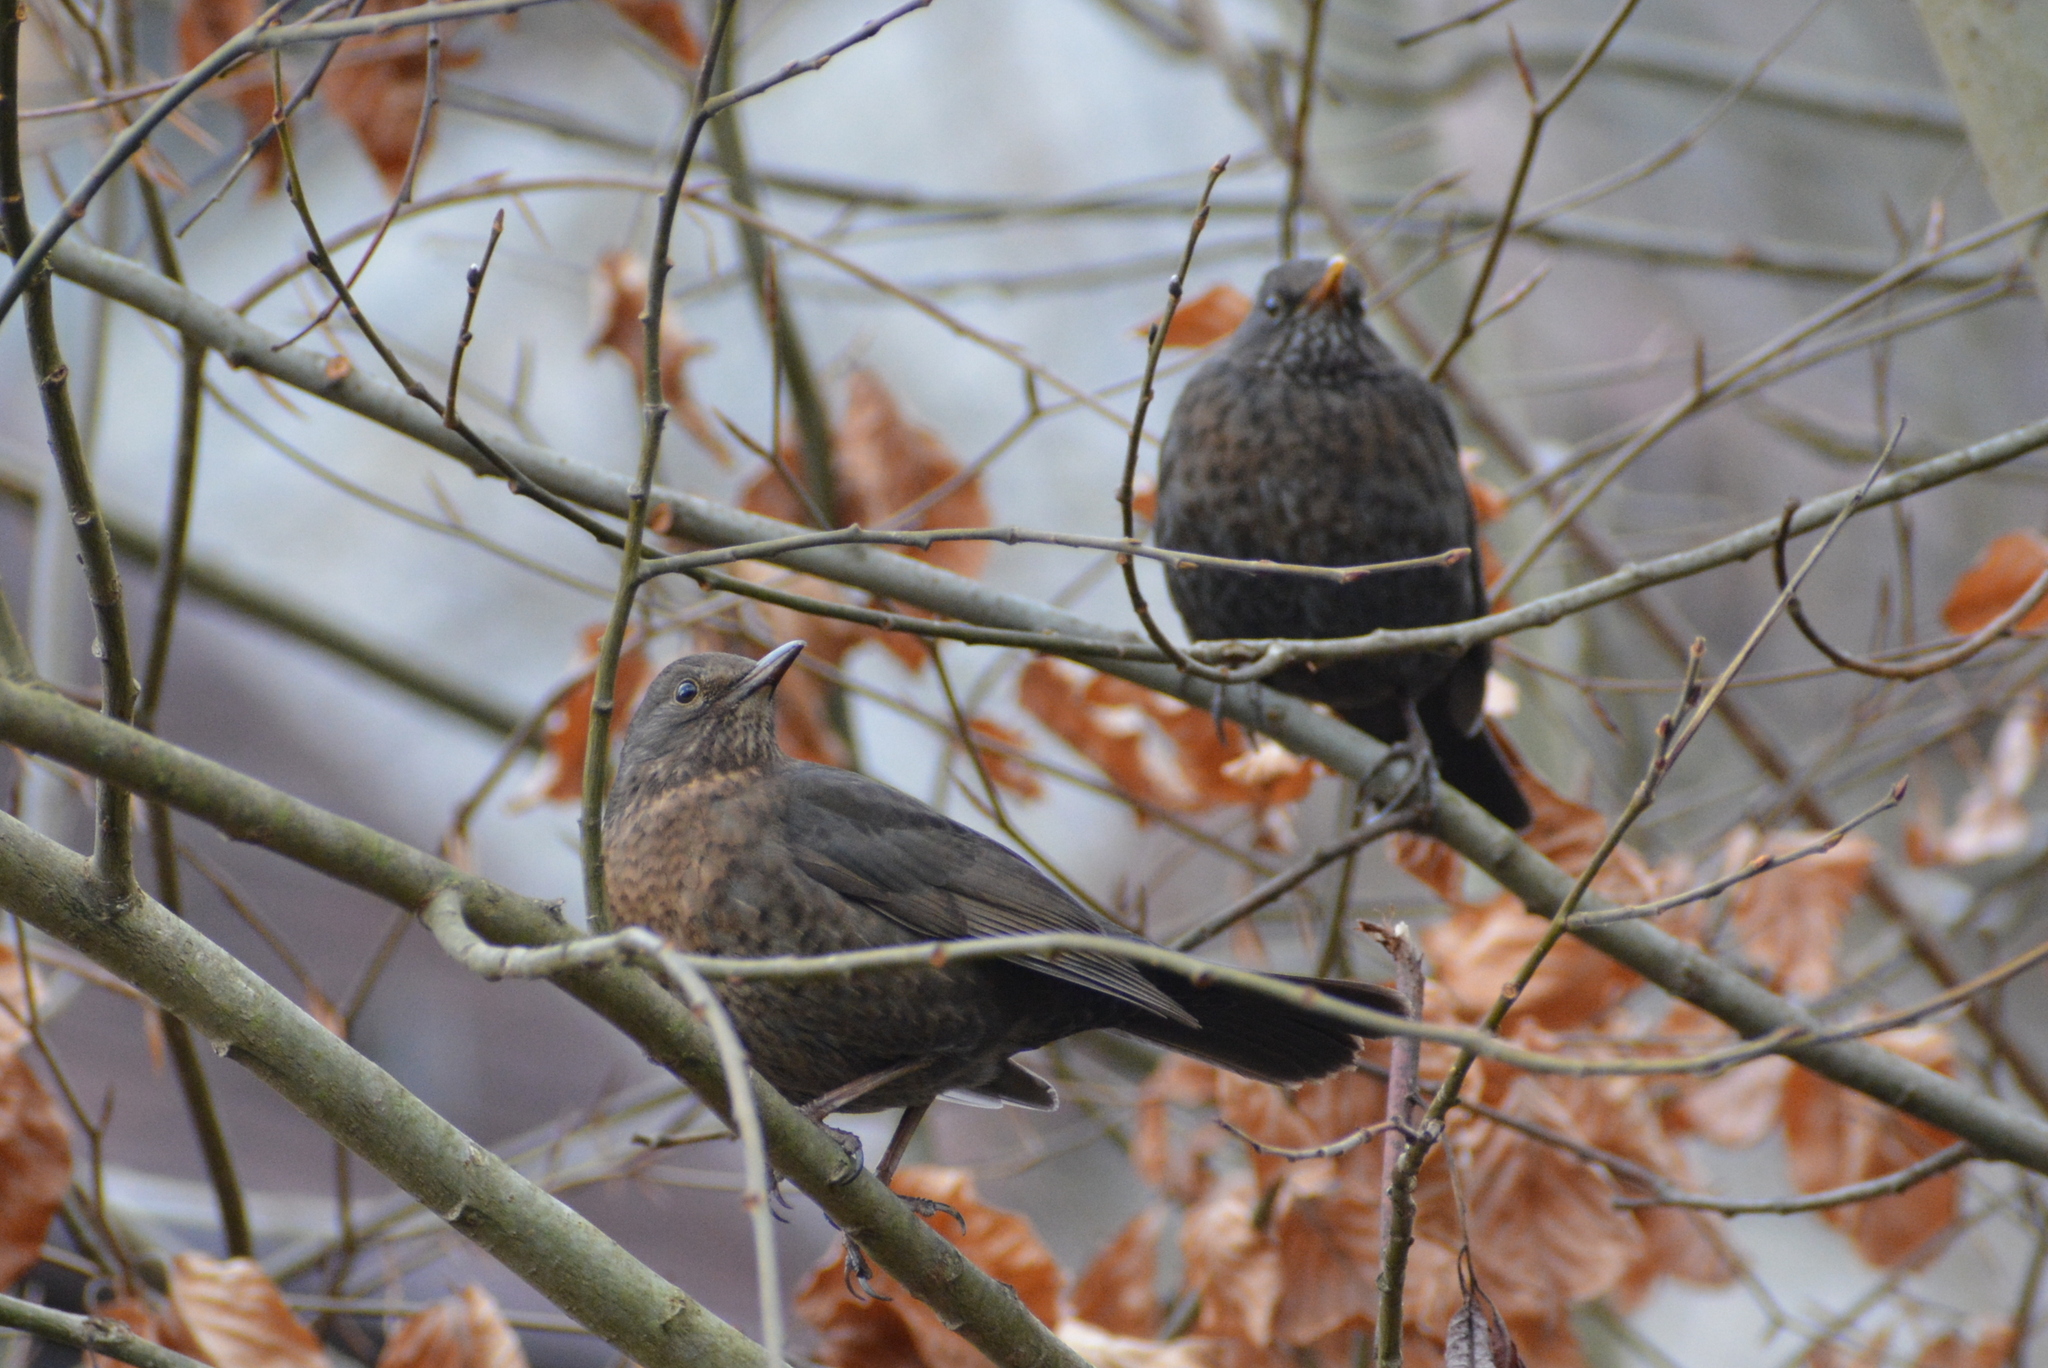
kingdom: Animalia
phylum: Chordata
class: Aves
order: Passeriformes
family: Turdidae
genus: Turdus
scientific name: Turdus merula
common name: Common blackbird
